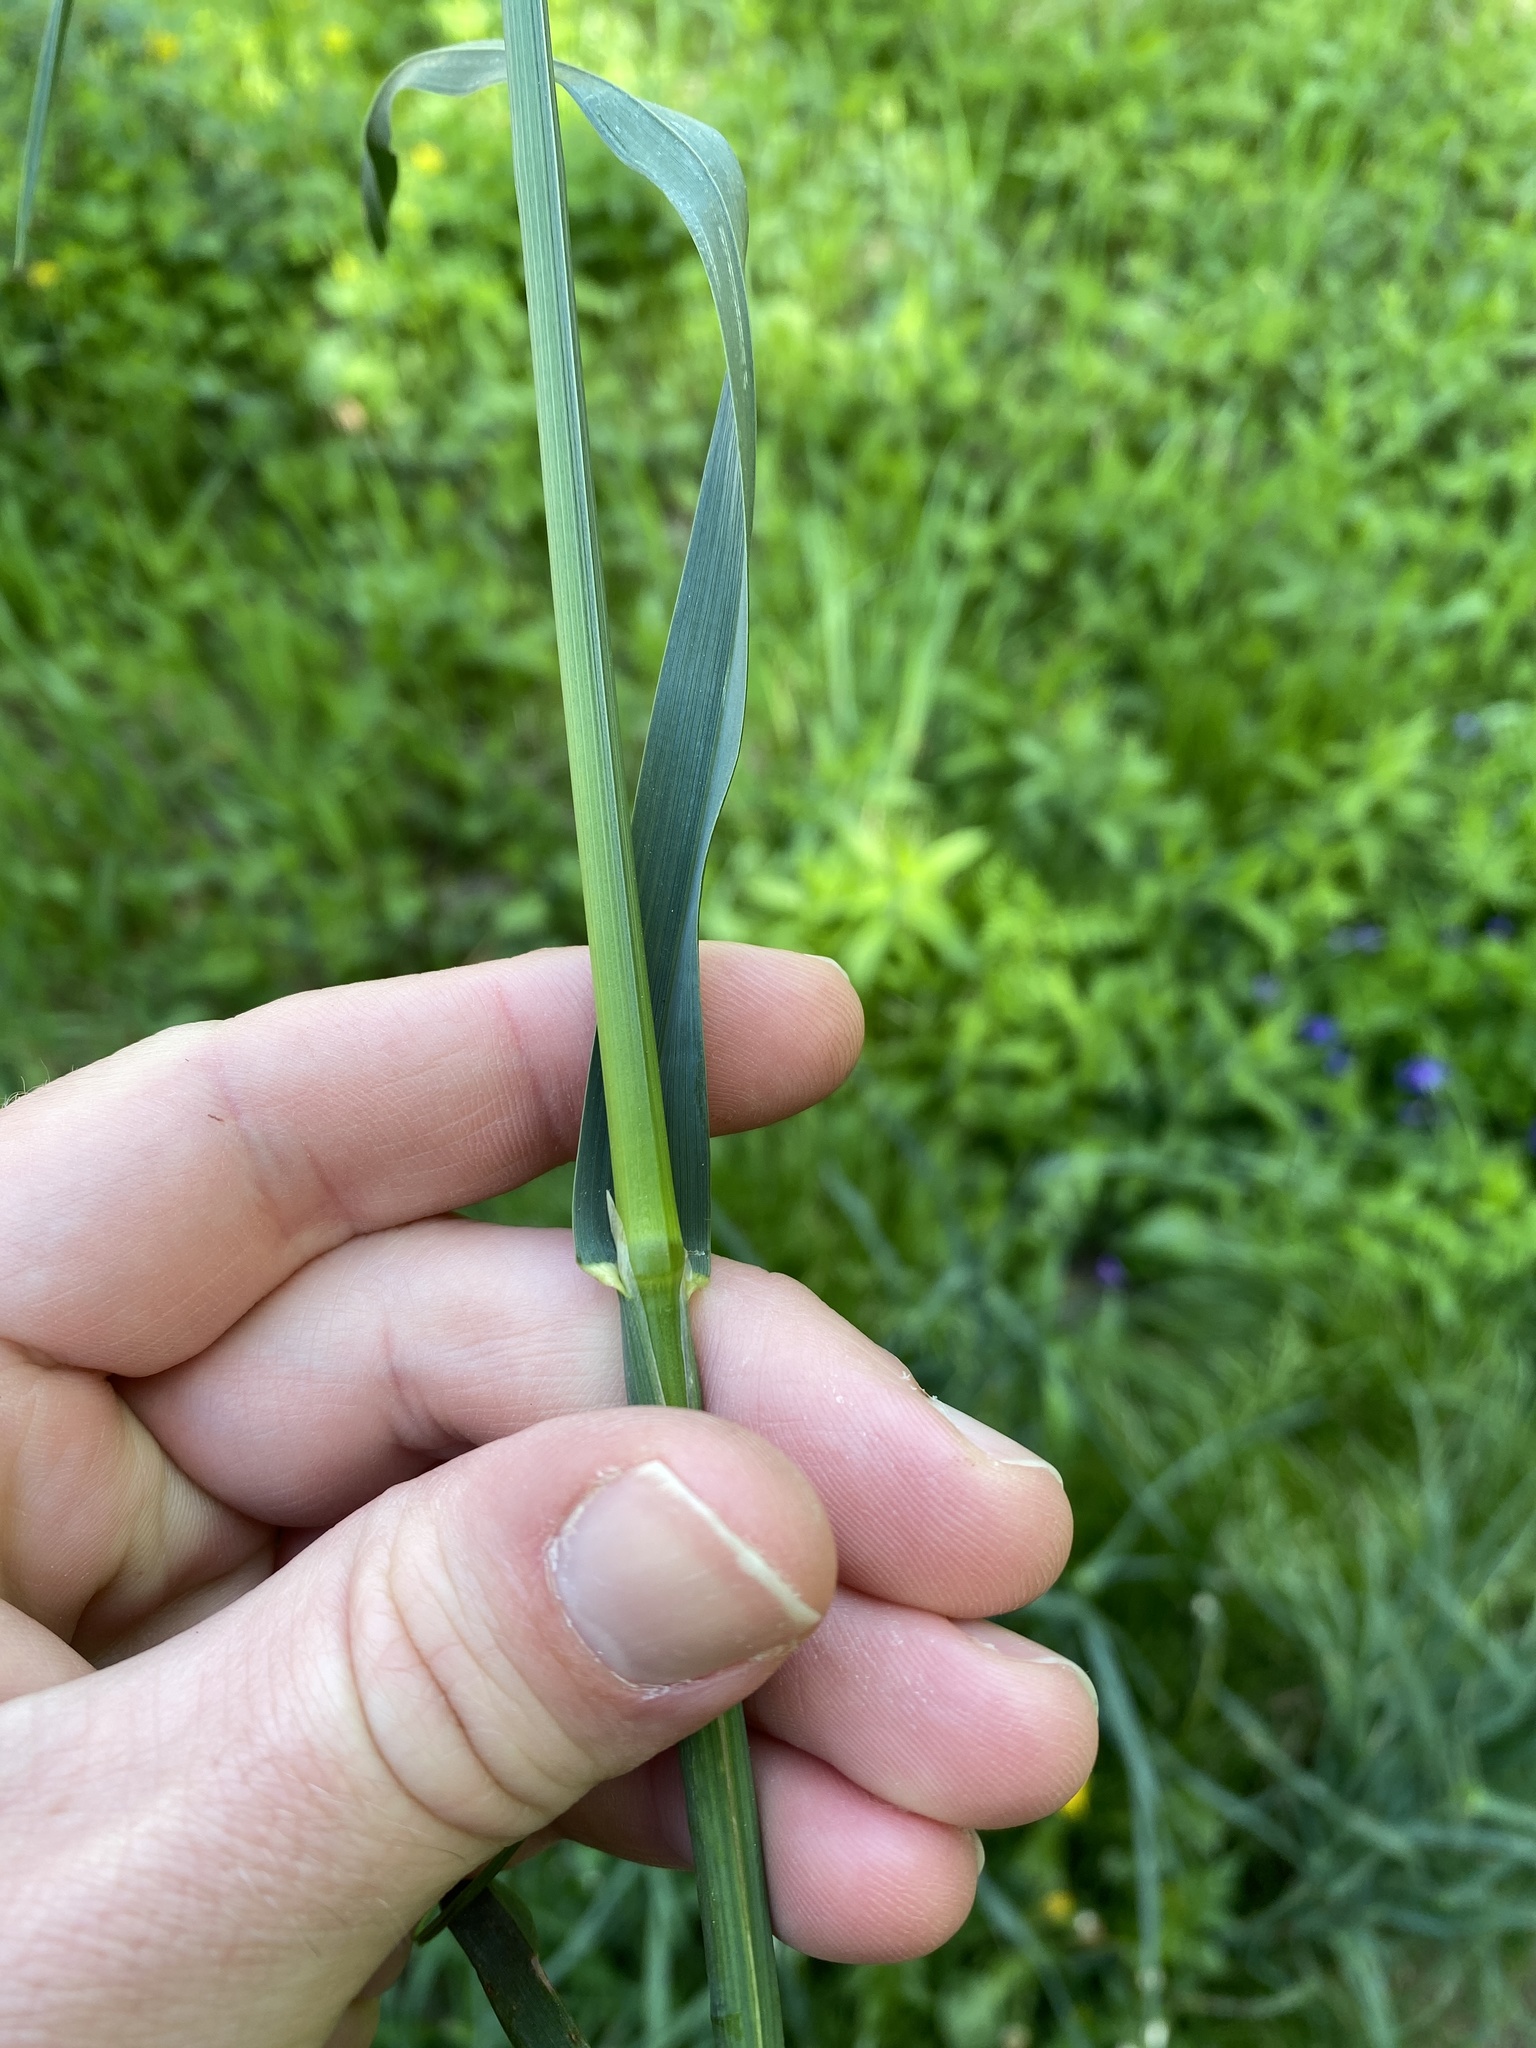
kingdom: Plantae
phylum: Tracheophyta
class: Liliopsida
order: Poales
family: Poaceae
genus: Dactylis
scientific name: Dactylis glomerata
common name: Orchardgrass
